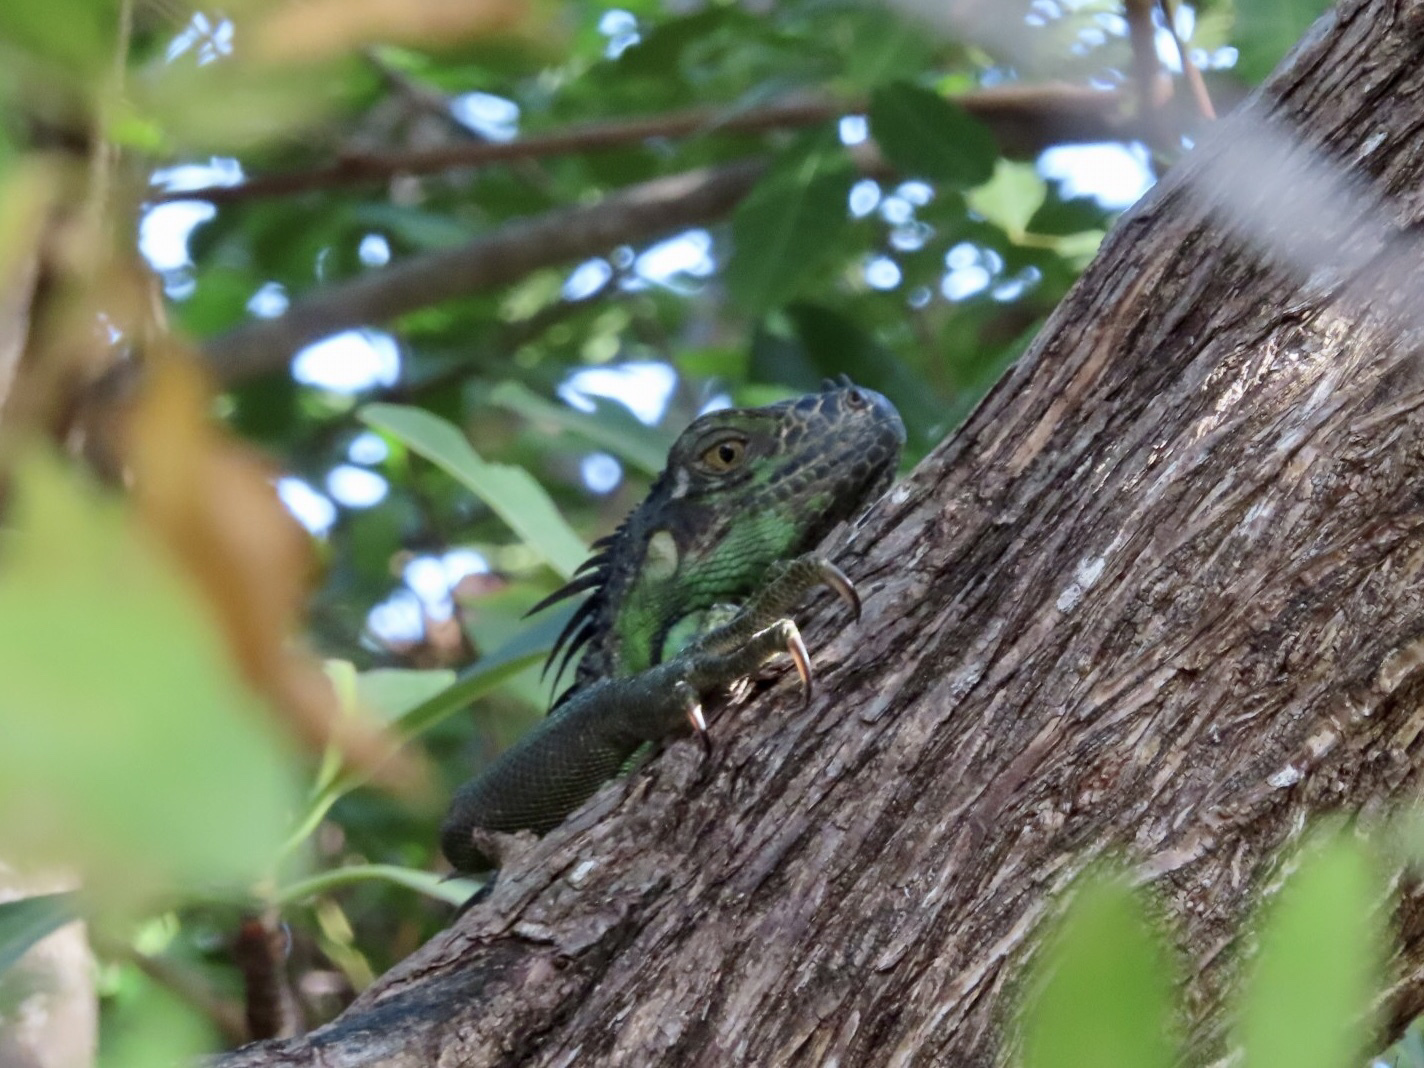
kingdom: Animalia
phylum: Chordata
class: Squamata
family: Iguanidae
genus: Iguana
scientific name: Iguana iguana
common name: Green iguana
